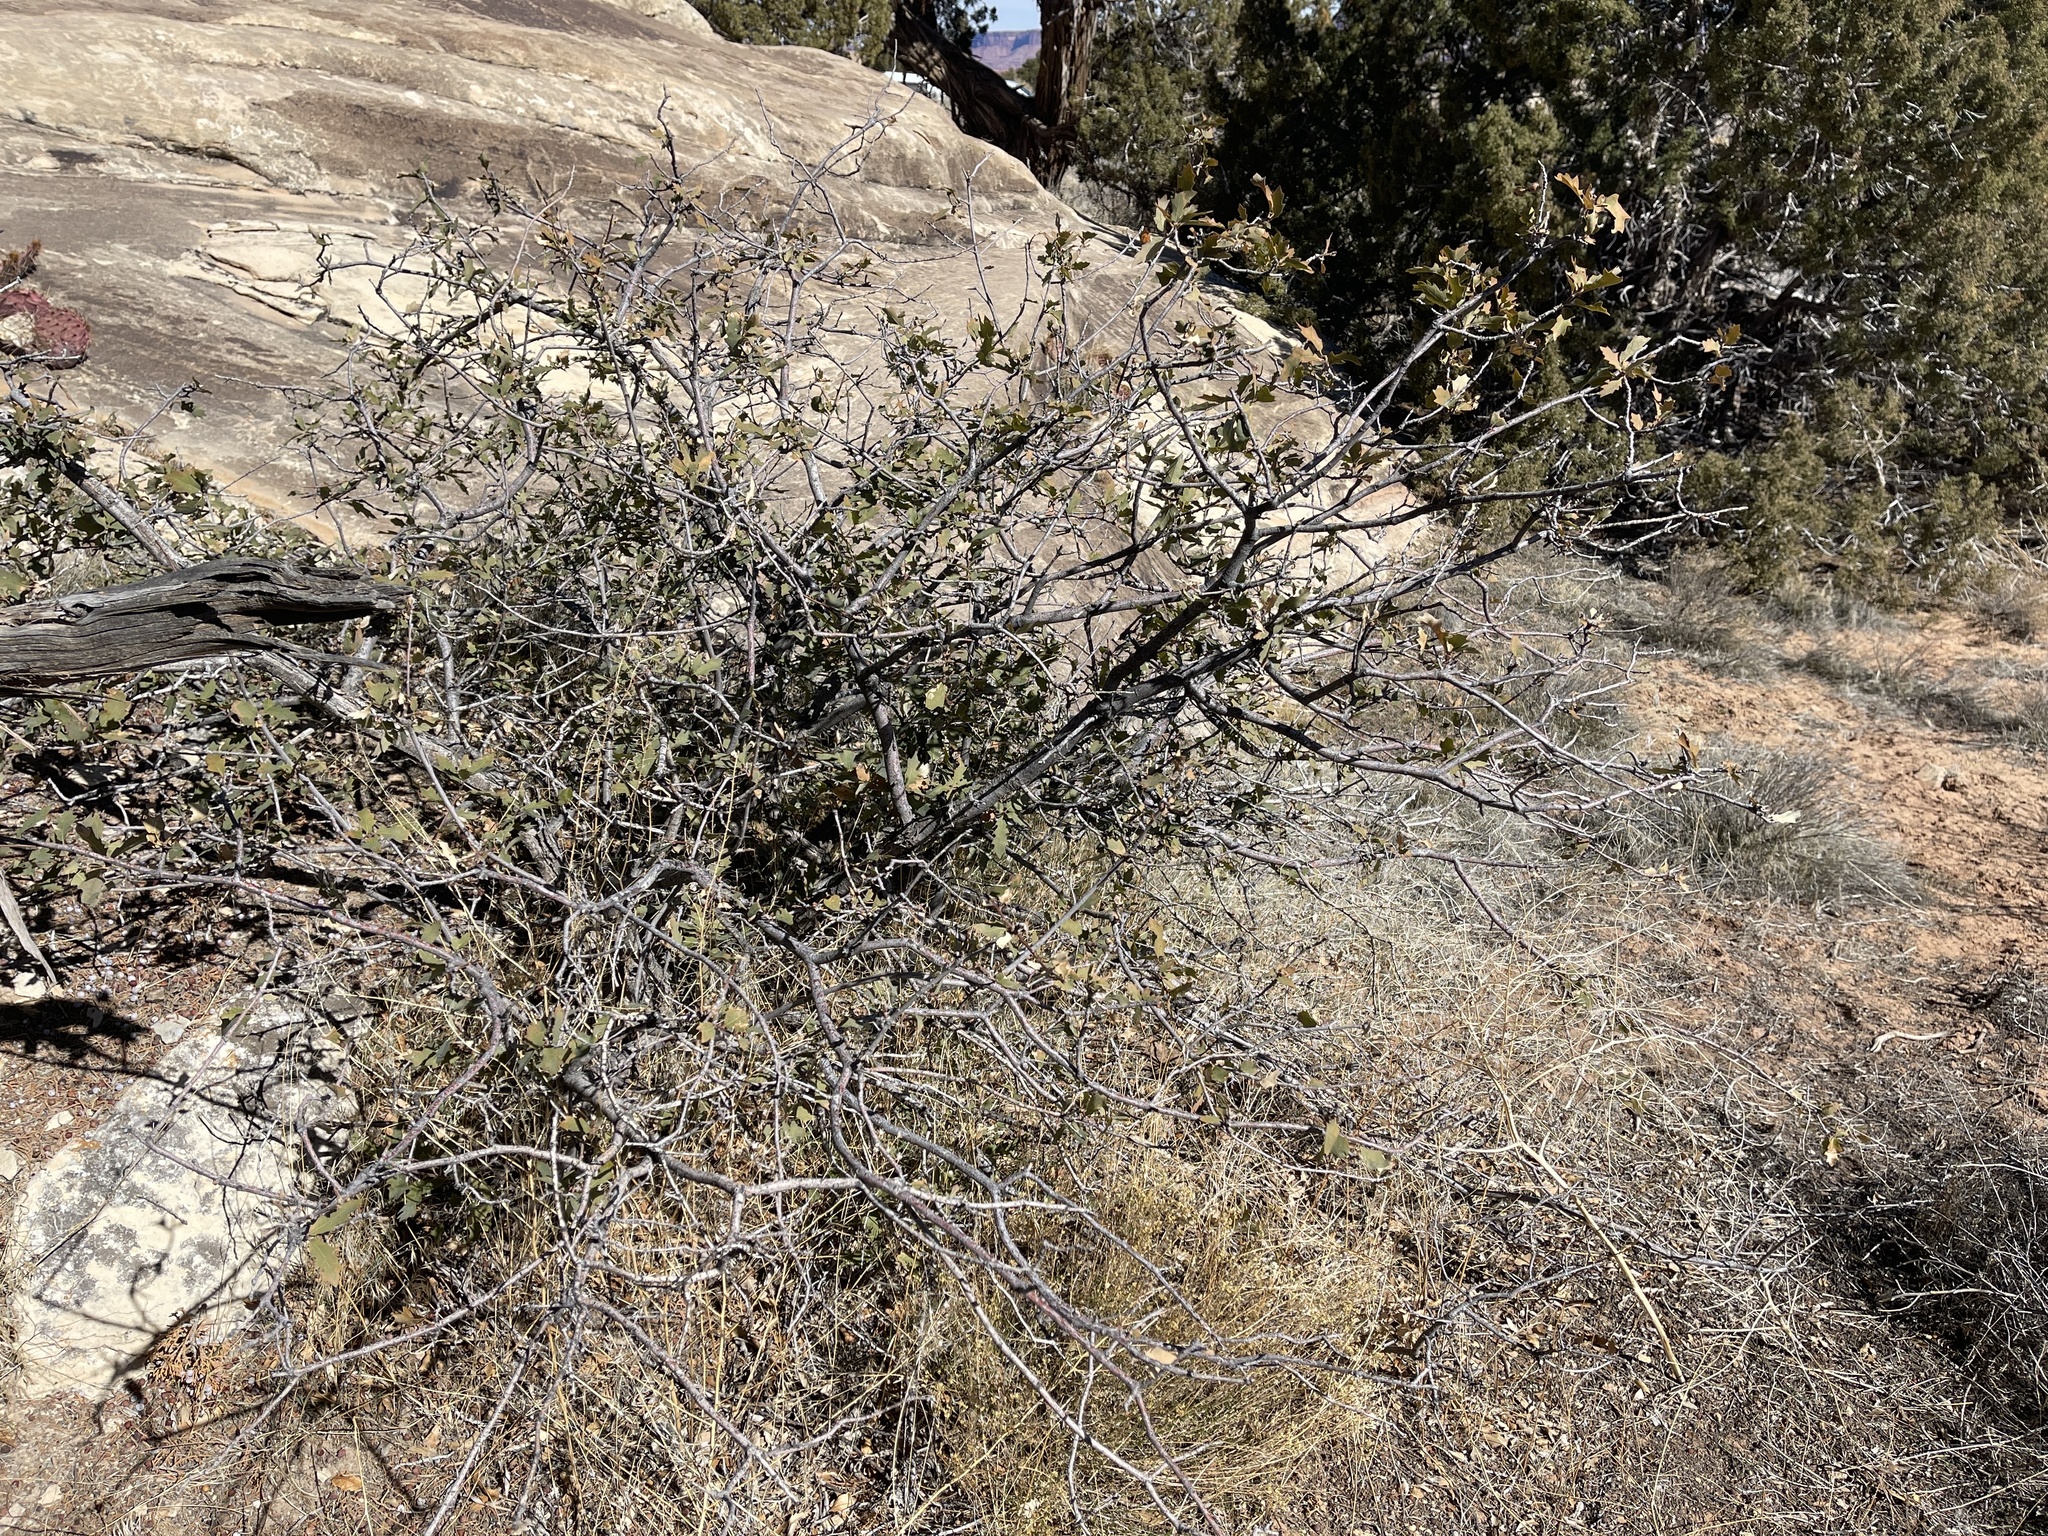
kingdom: Plantae
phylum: Tracheophyta
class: Magnoliopsida
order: Fagales
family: Fagaceae
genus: Quercus
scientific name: Quercus turbinella
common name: Sonoran scrub oak
